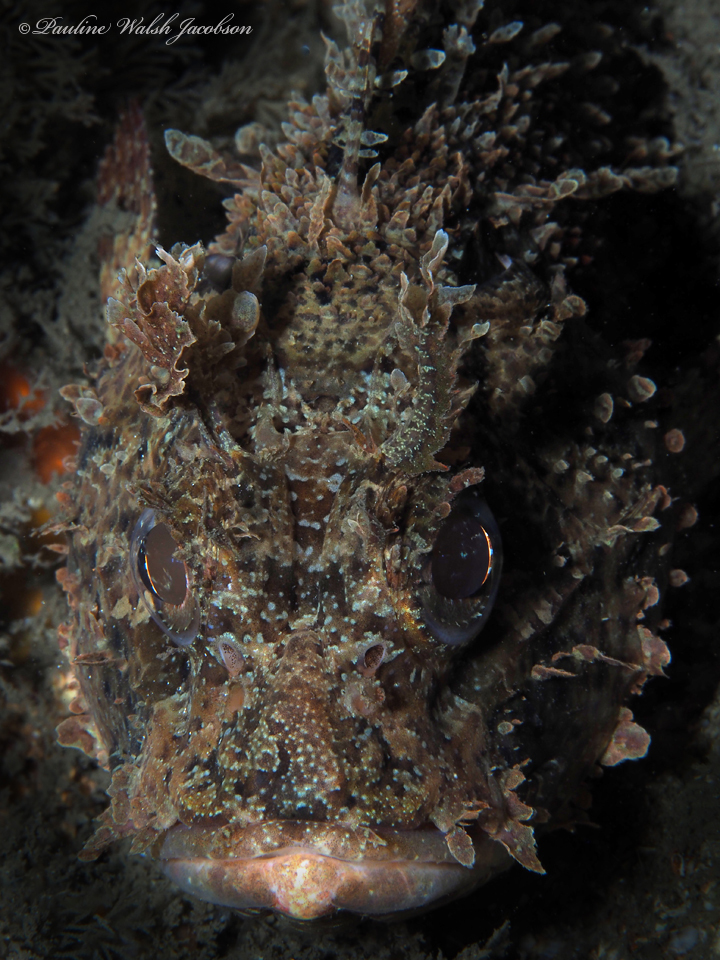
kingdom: Animalia
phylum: Chordata
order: Scorpaeniformes
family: Scorpaenidae
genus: Scorpaena
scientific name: Scorpaena plumieri
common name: Spotted scorpionfish
